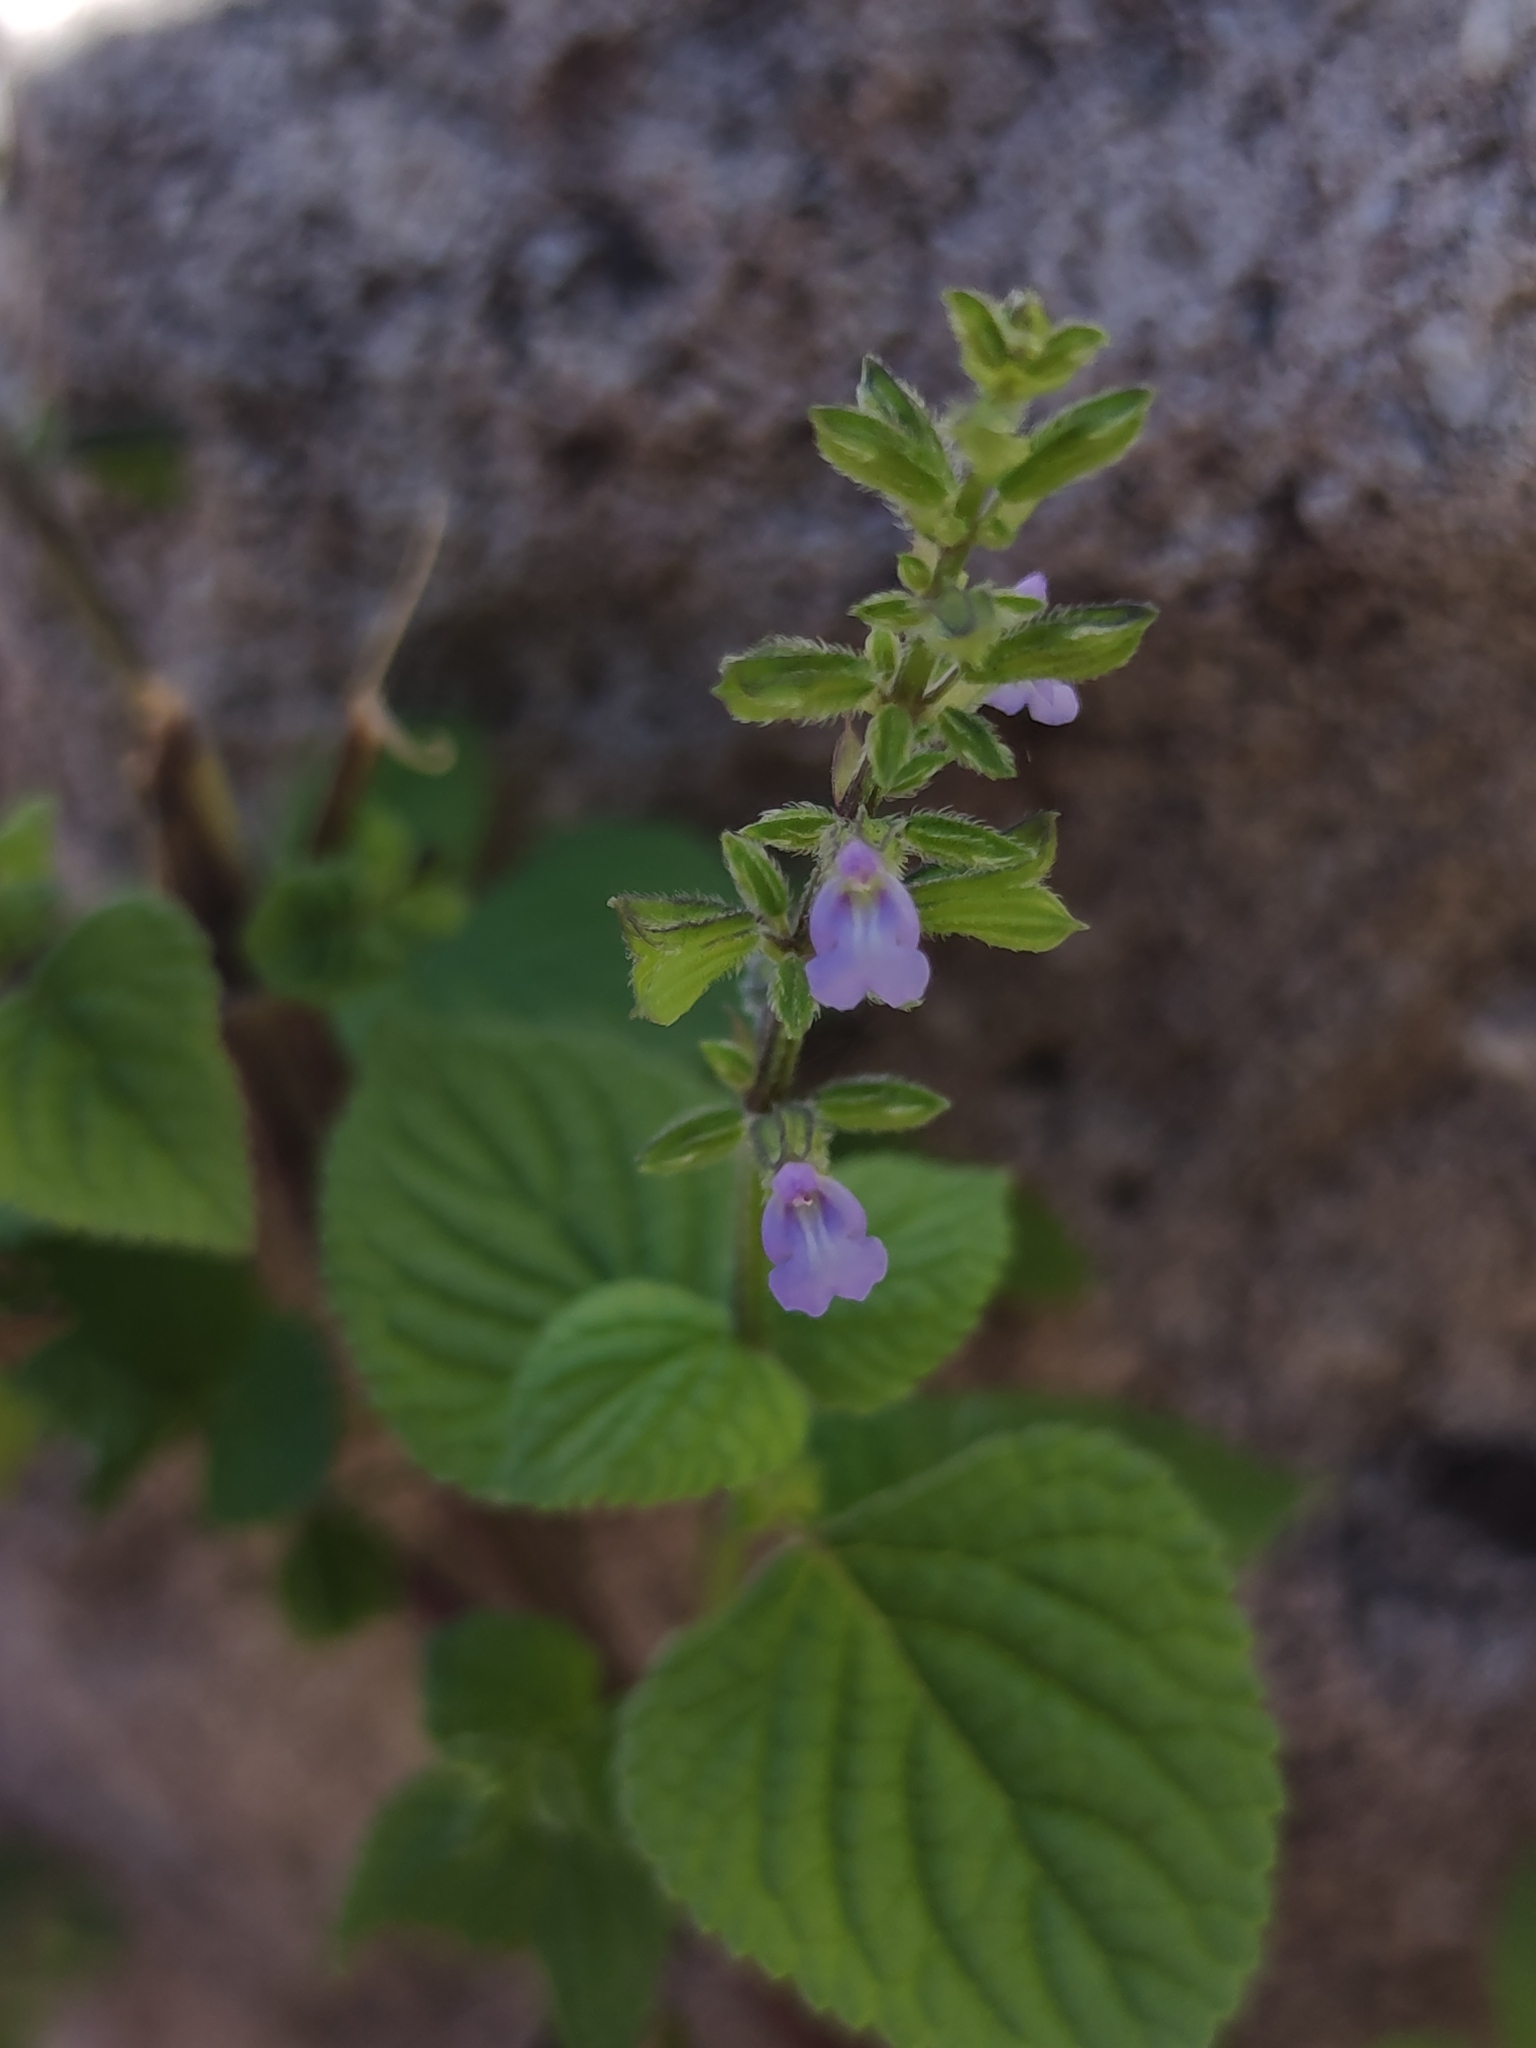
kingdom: Plantae
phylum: Tracheophyta
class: Magnoliopsida
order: Lamiales
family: Lamiaceae
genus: Salvia
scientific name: Salvia tiliifolia
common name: Lindenleaf sage
